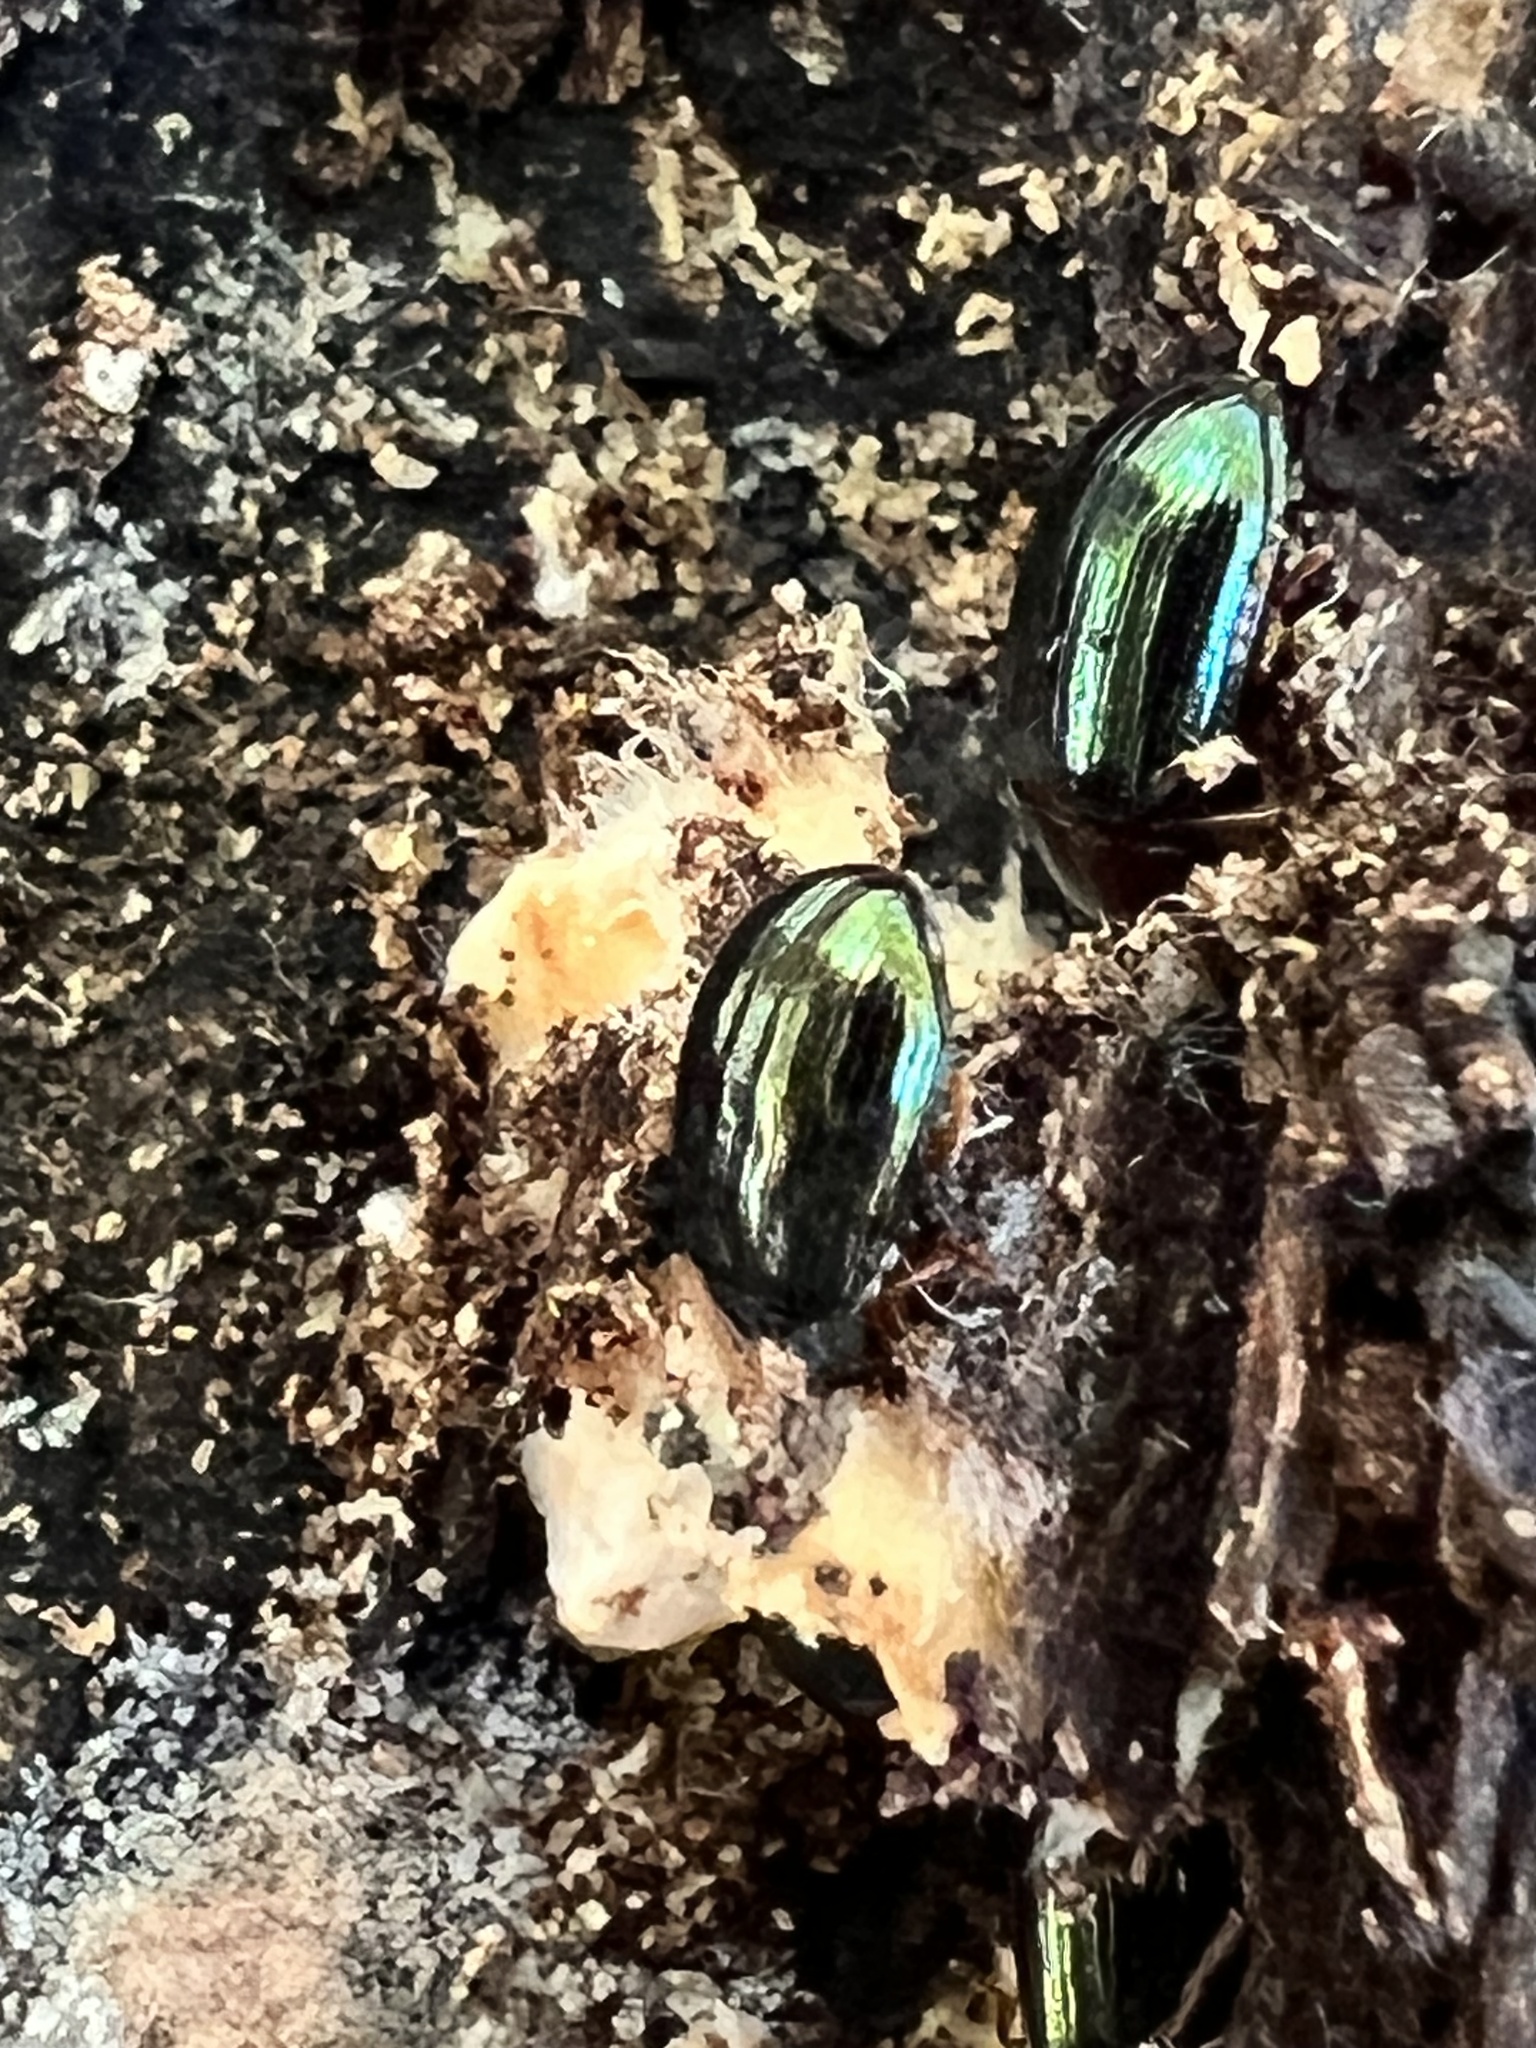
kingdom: Animalia
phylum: Arthropoda
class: Insecta
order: Coleoptera
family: Tenebrionidae
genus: Neomida
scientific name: Neomida bicornis
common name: Two-horned darkling beetle
